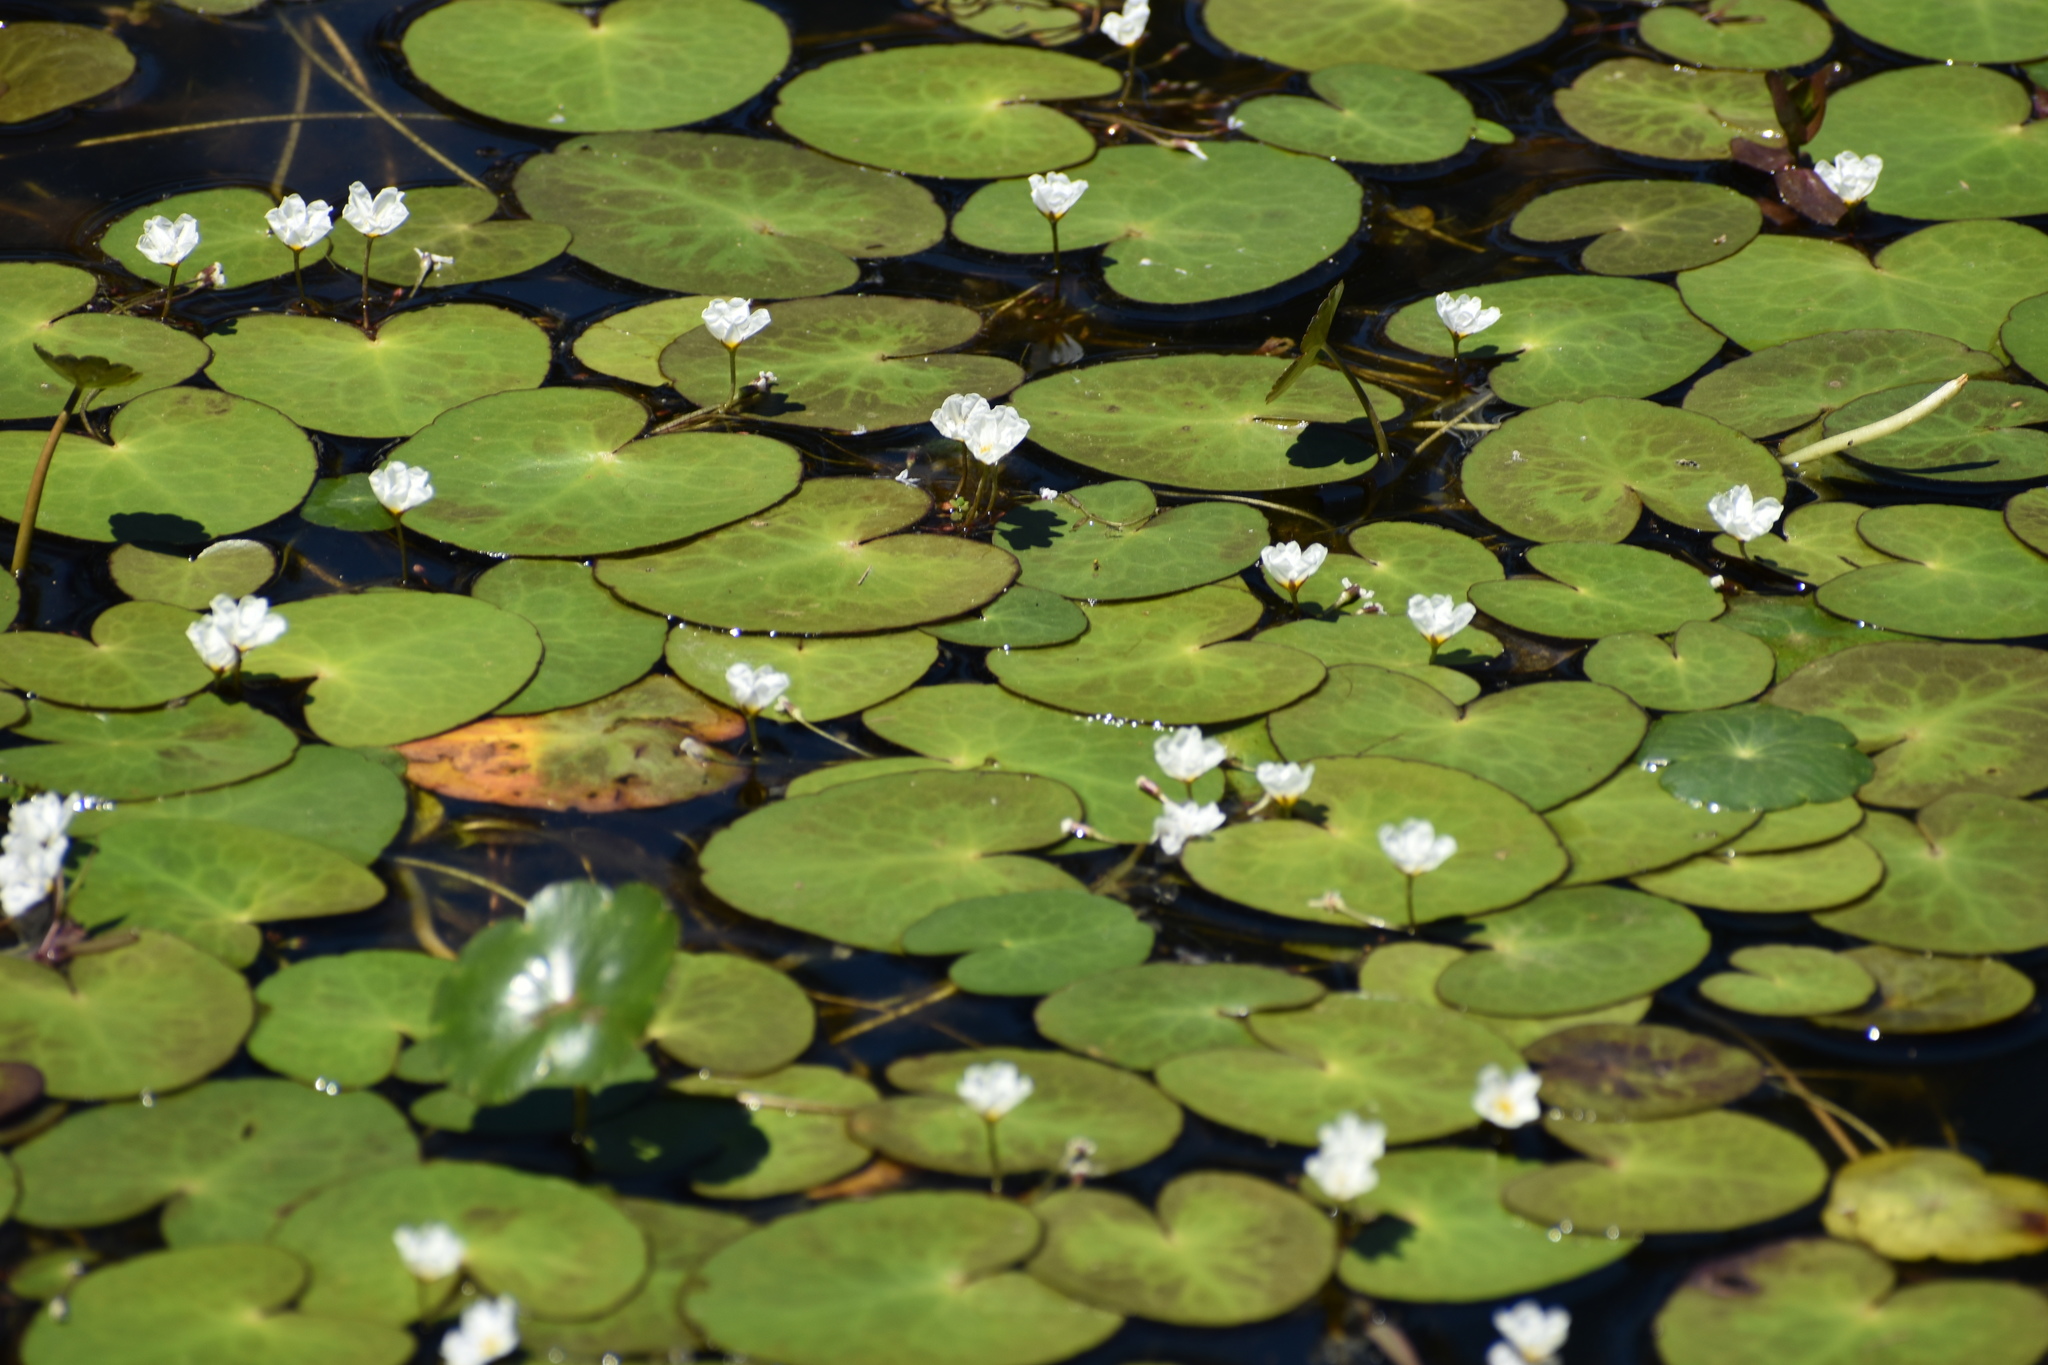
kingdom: Plantae
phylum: Tracheophyta
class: Magnoliopsida
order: Nymphaeales
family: Nymphaeaceae
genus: Nymphaea
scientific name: Nymphaea odorata
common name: Fragrant water-lily
